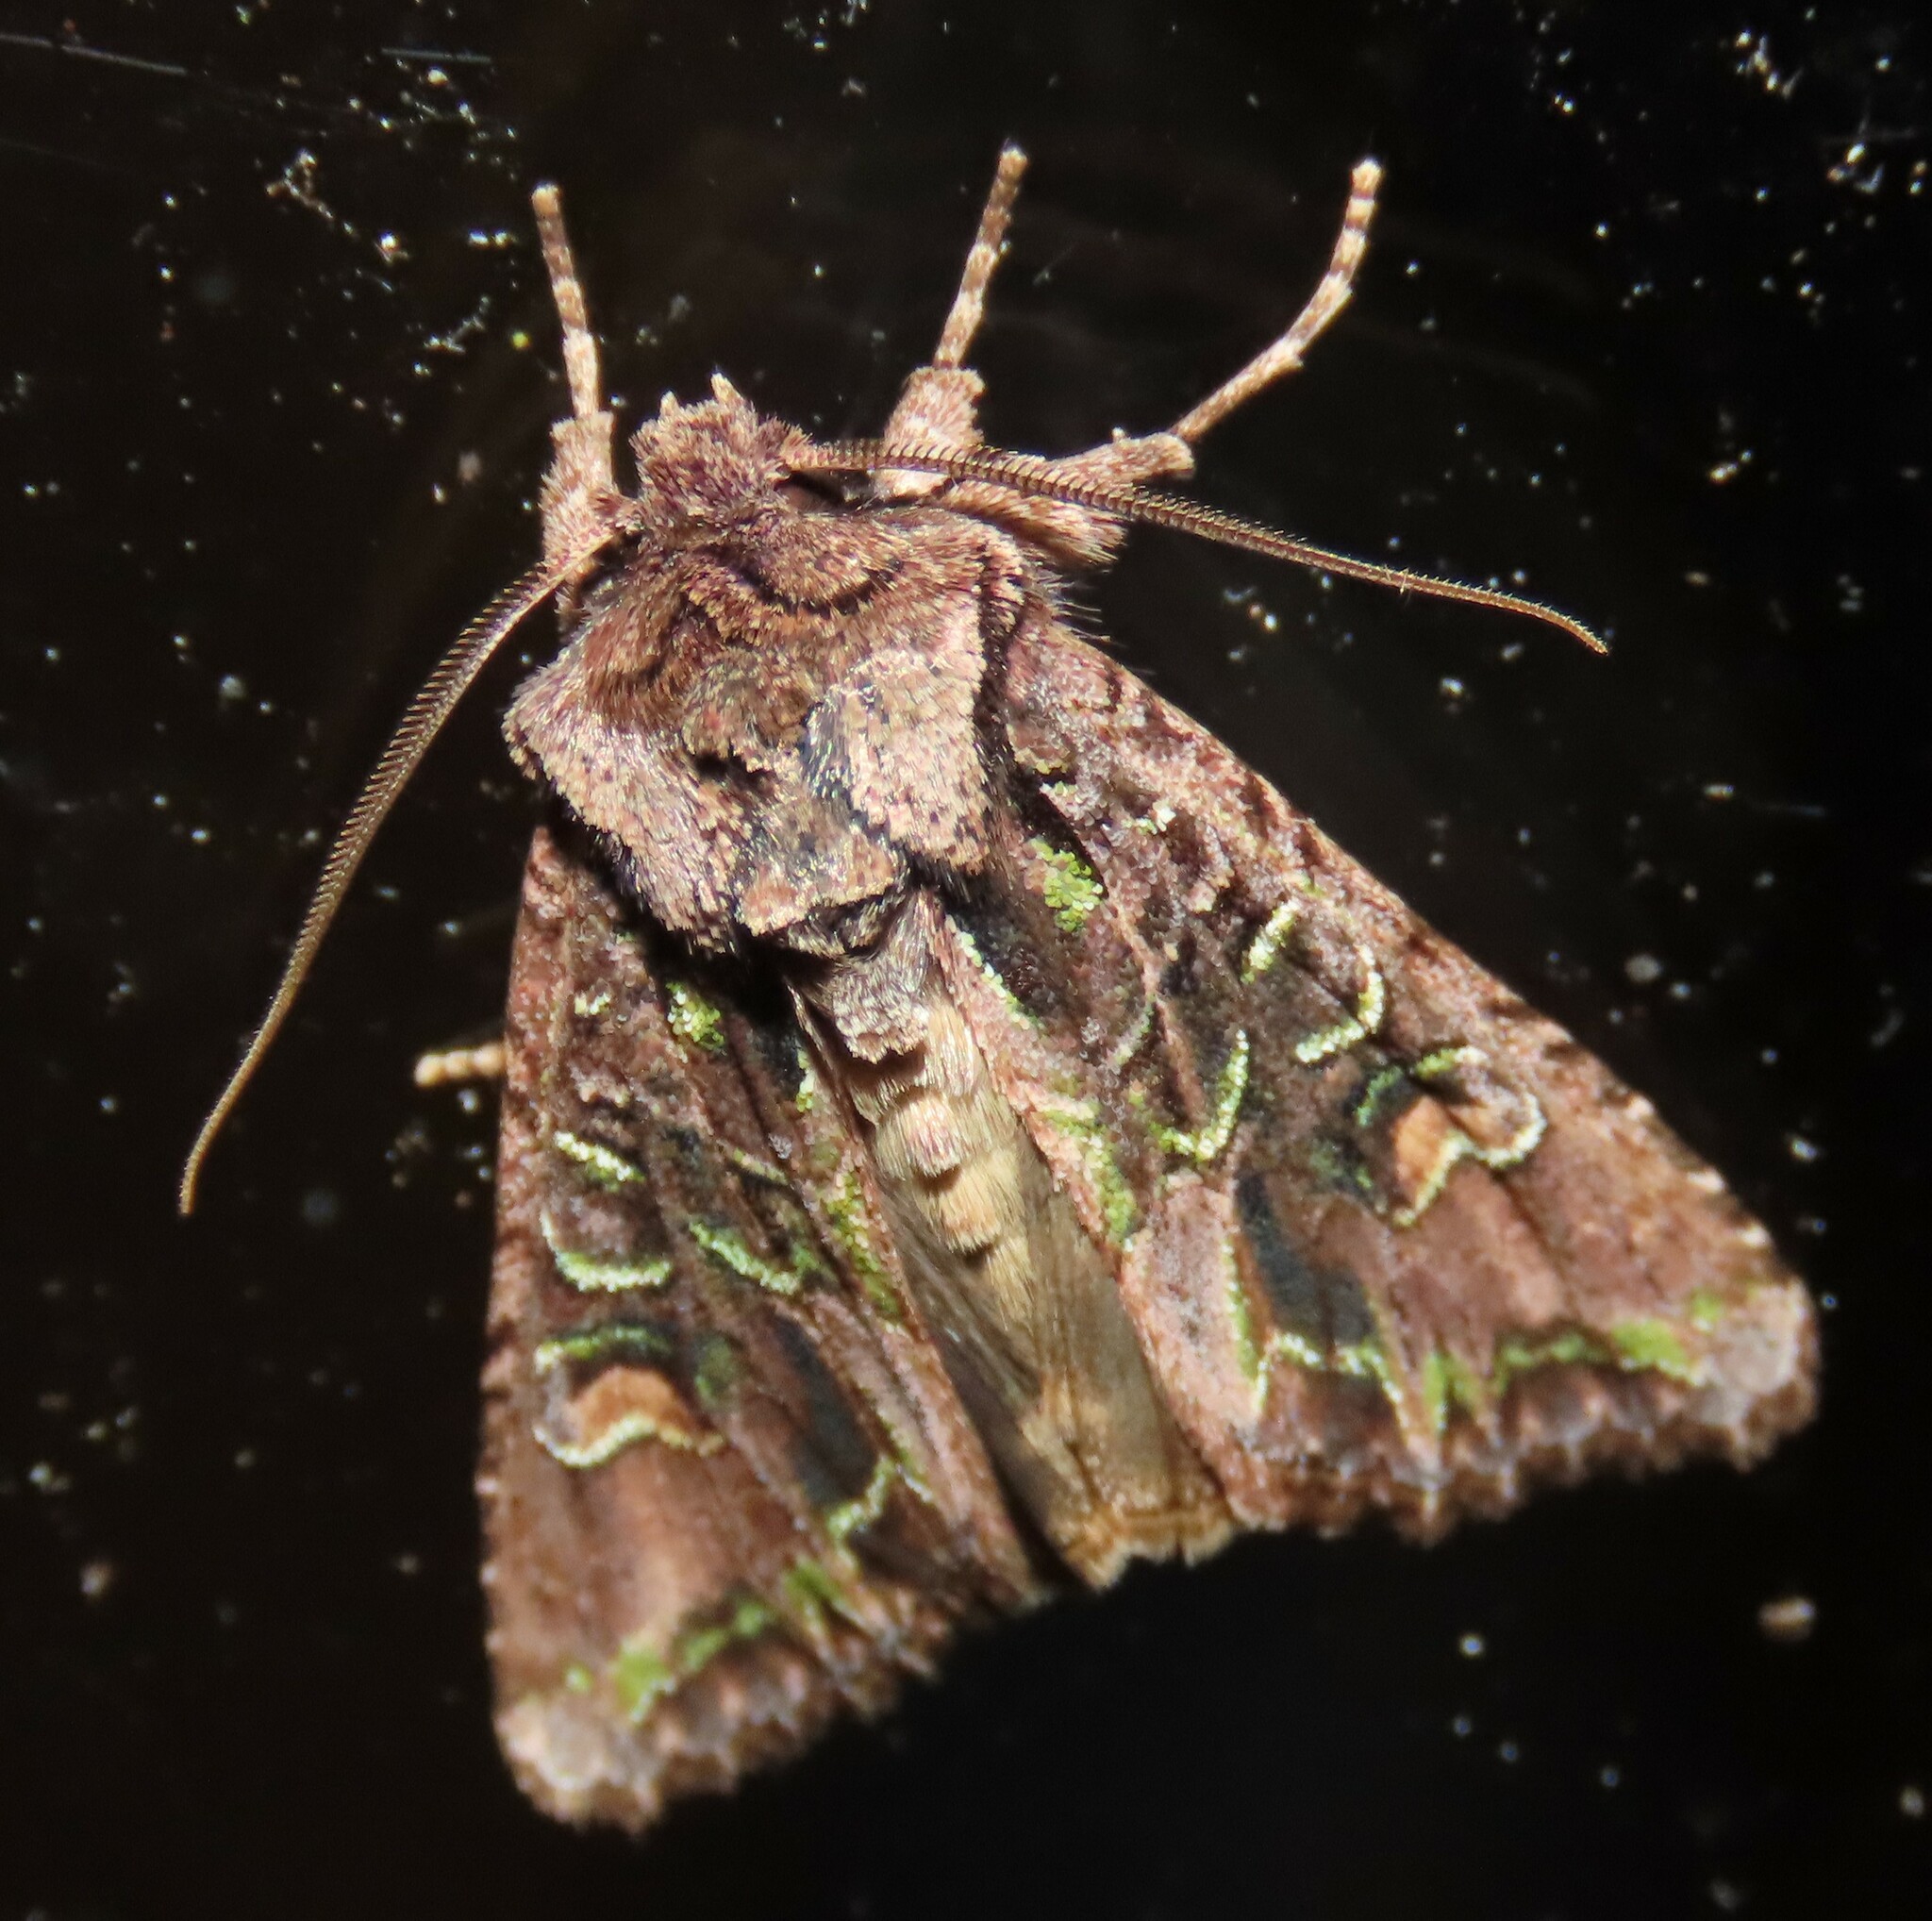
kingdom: Animalia
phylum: Arthropoda
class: Insecta
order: Lepidoptera
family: Noctuidae
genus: Ichneutica
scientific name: Ichneutica insignis
